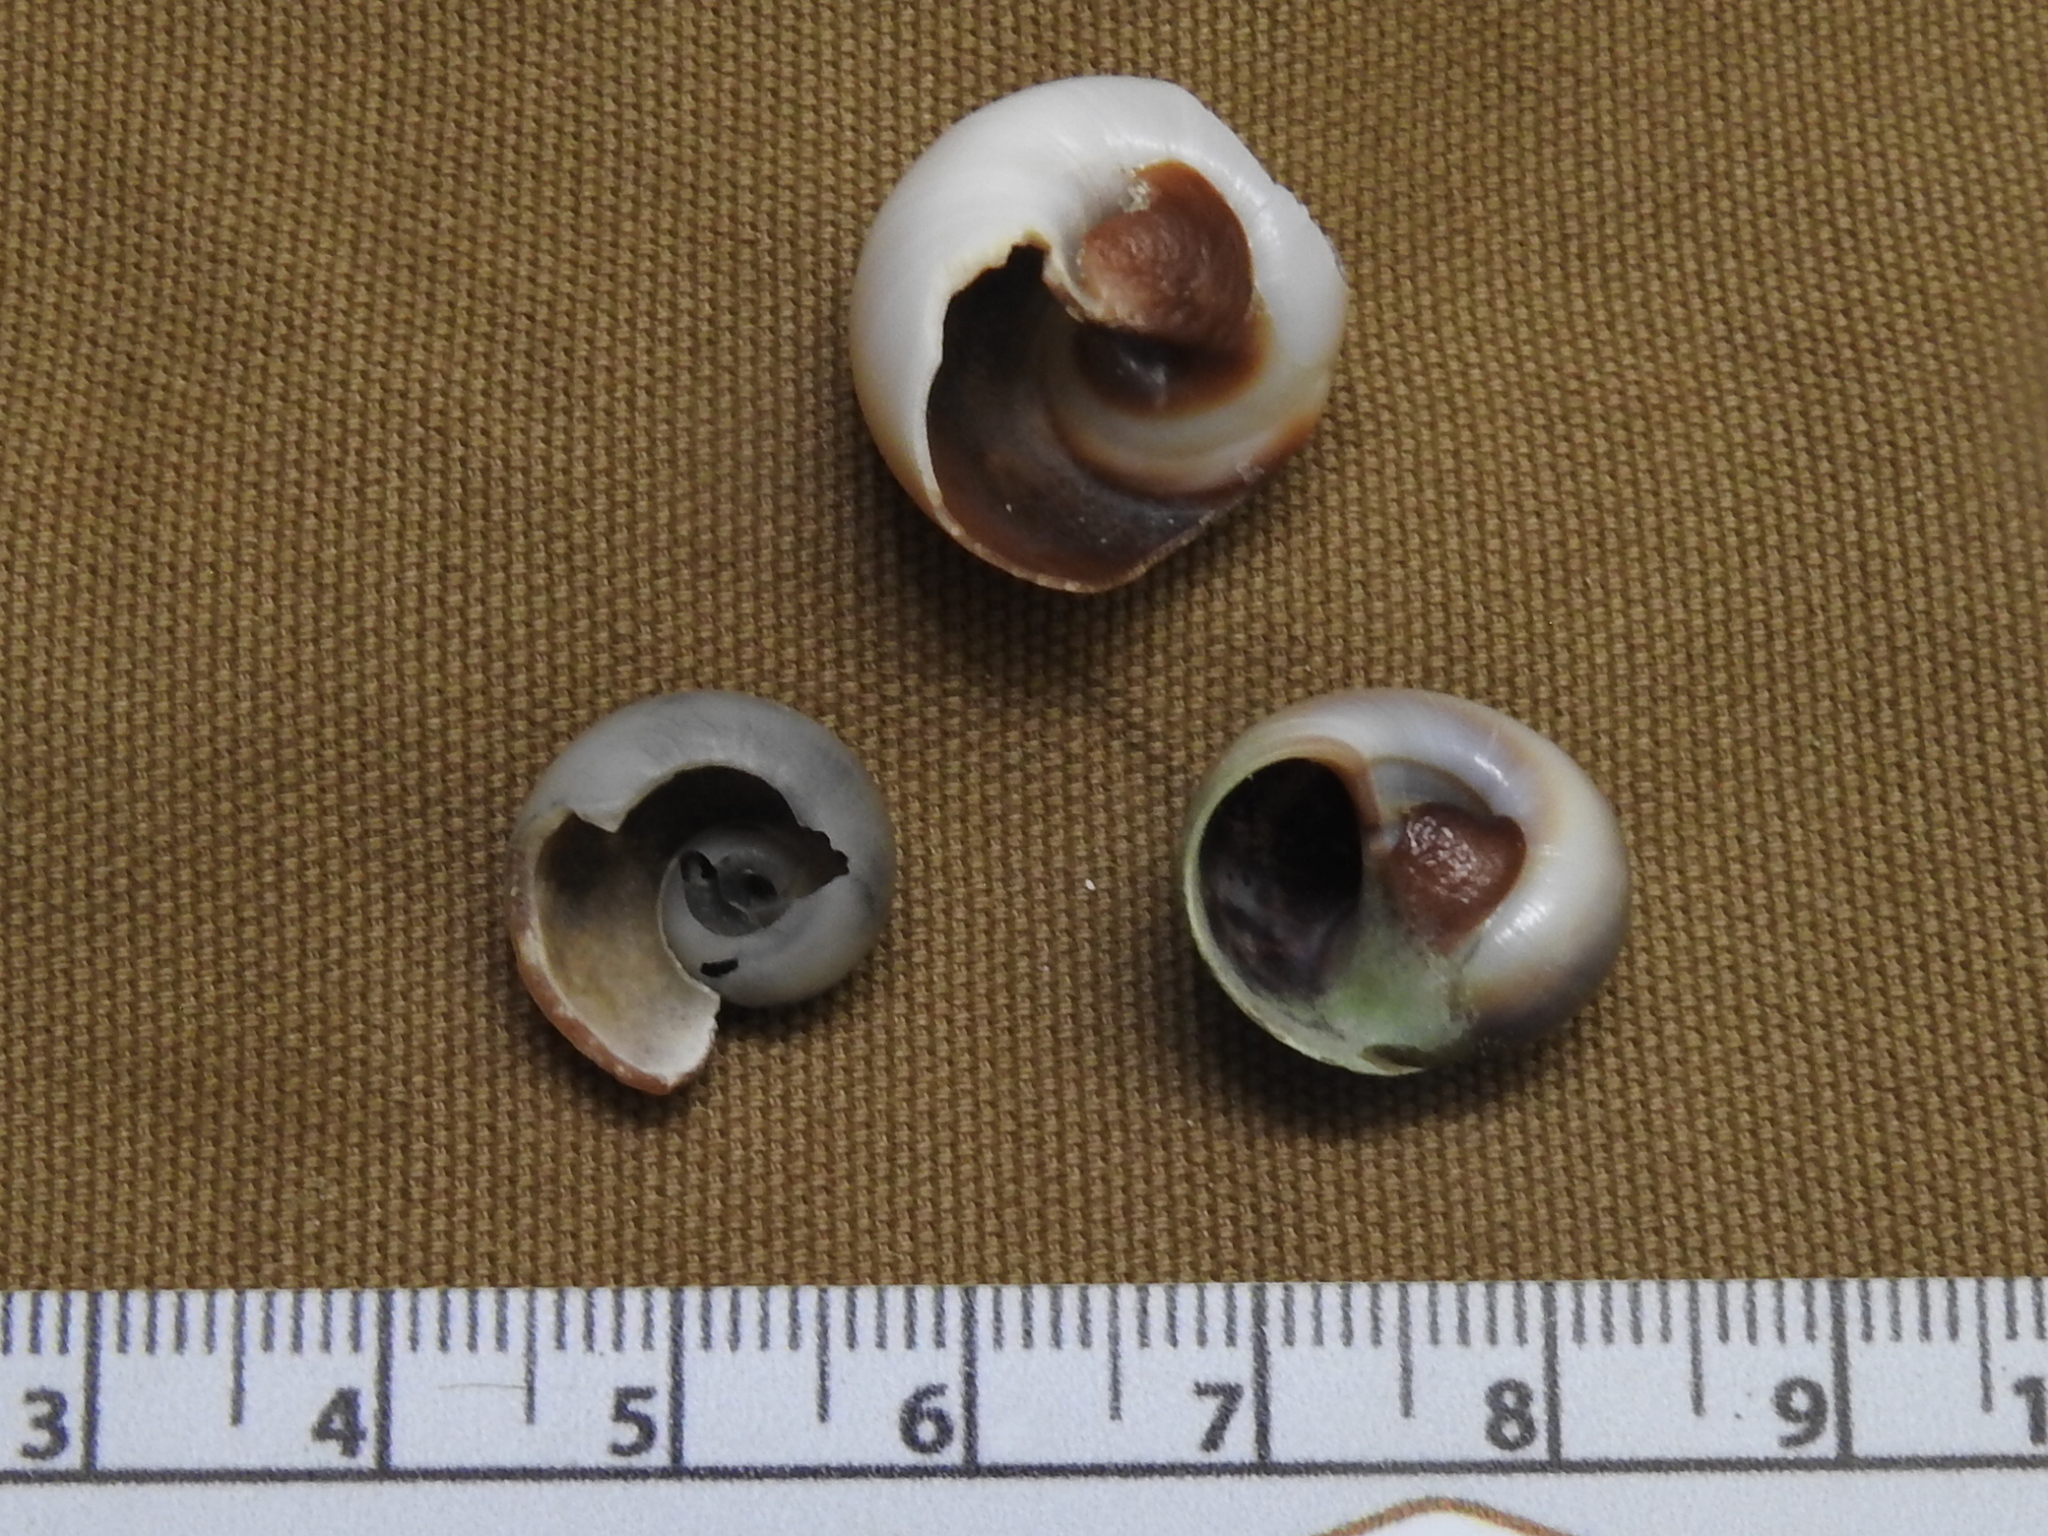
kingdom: Animalia
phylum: Mollusca
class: Gastropoda
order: Littorinimorpha
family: Naticidae
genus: Neverita
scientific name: Neverita duplicata
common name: Lobed moonsnail
